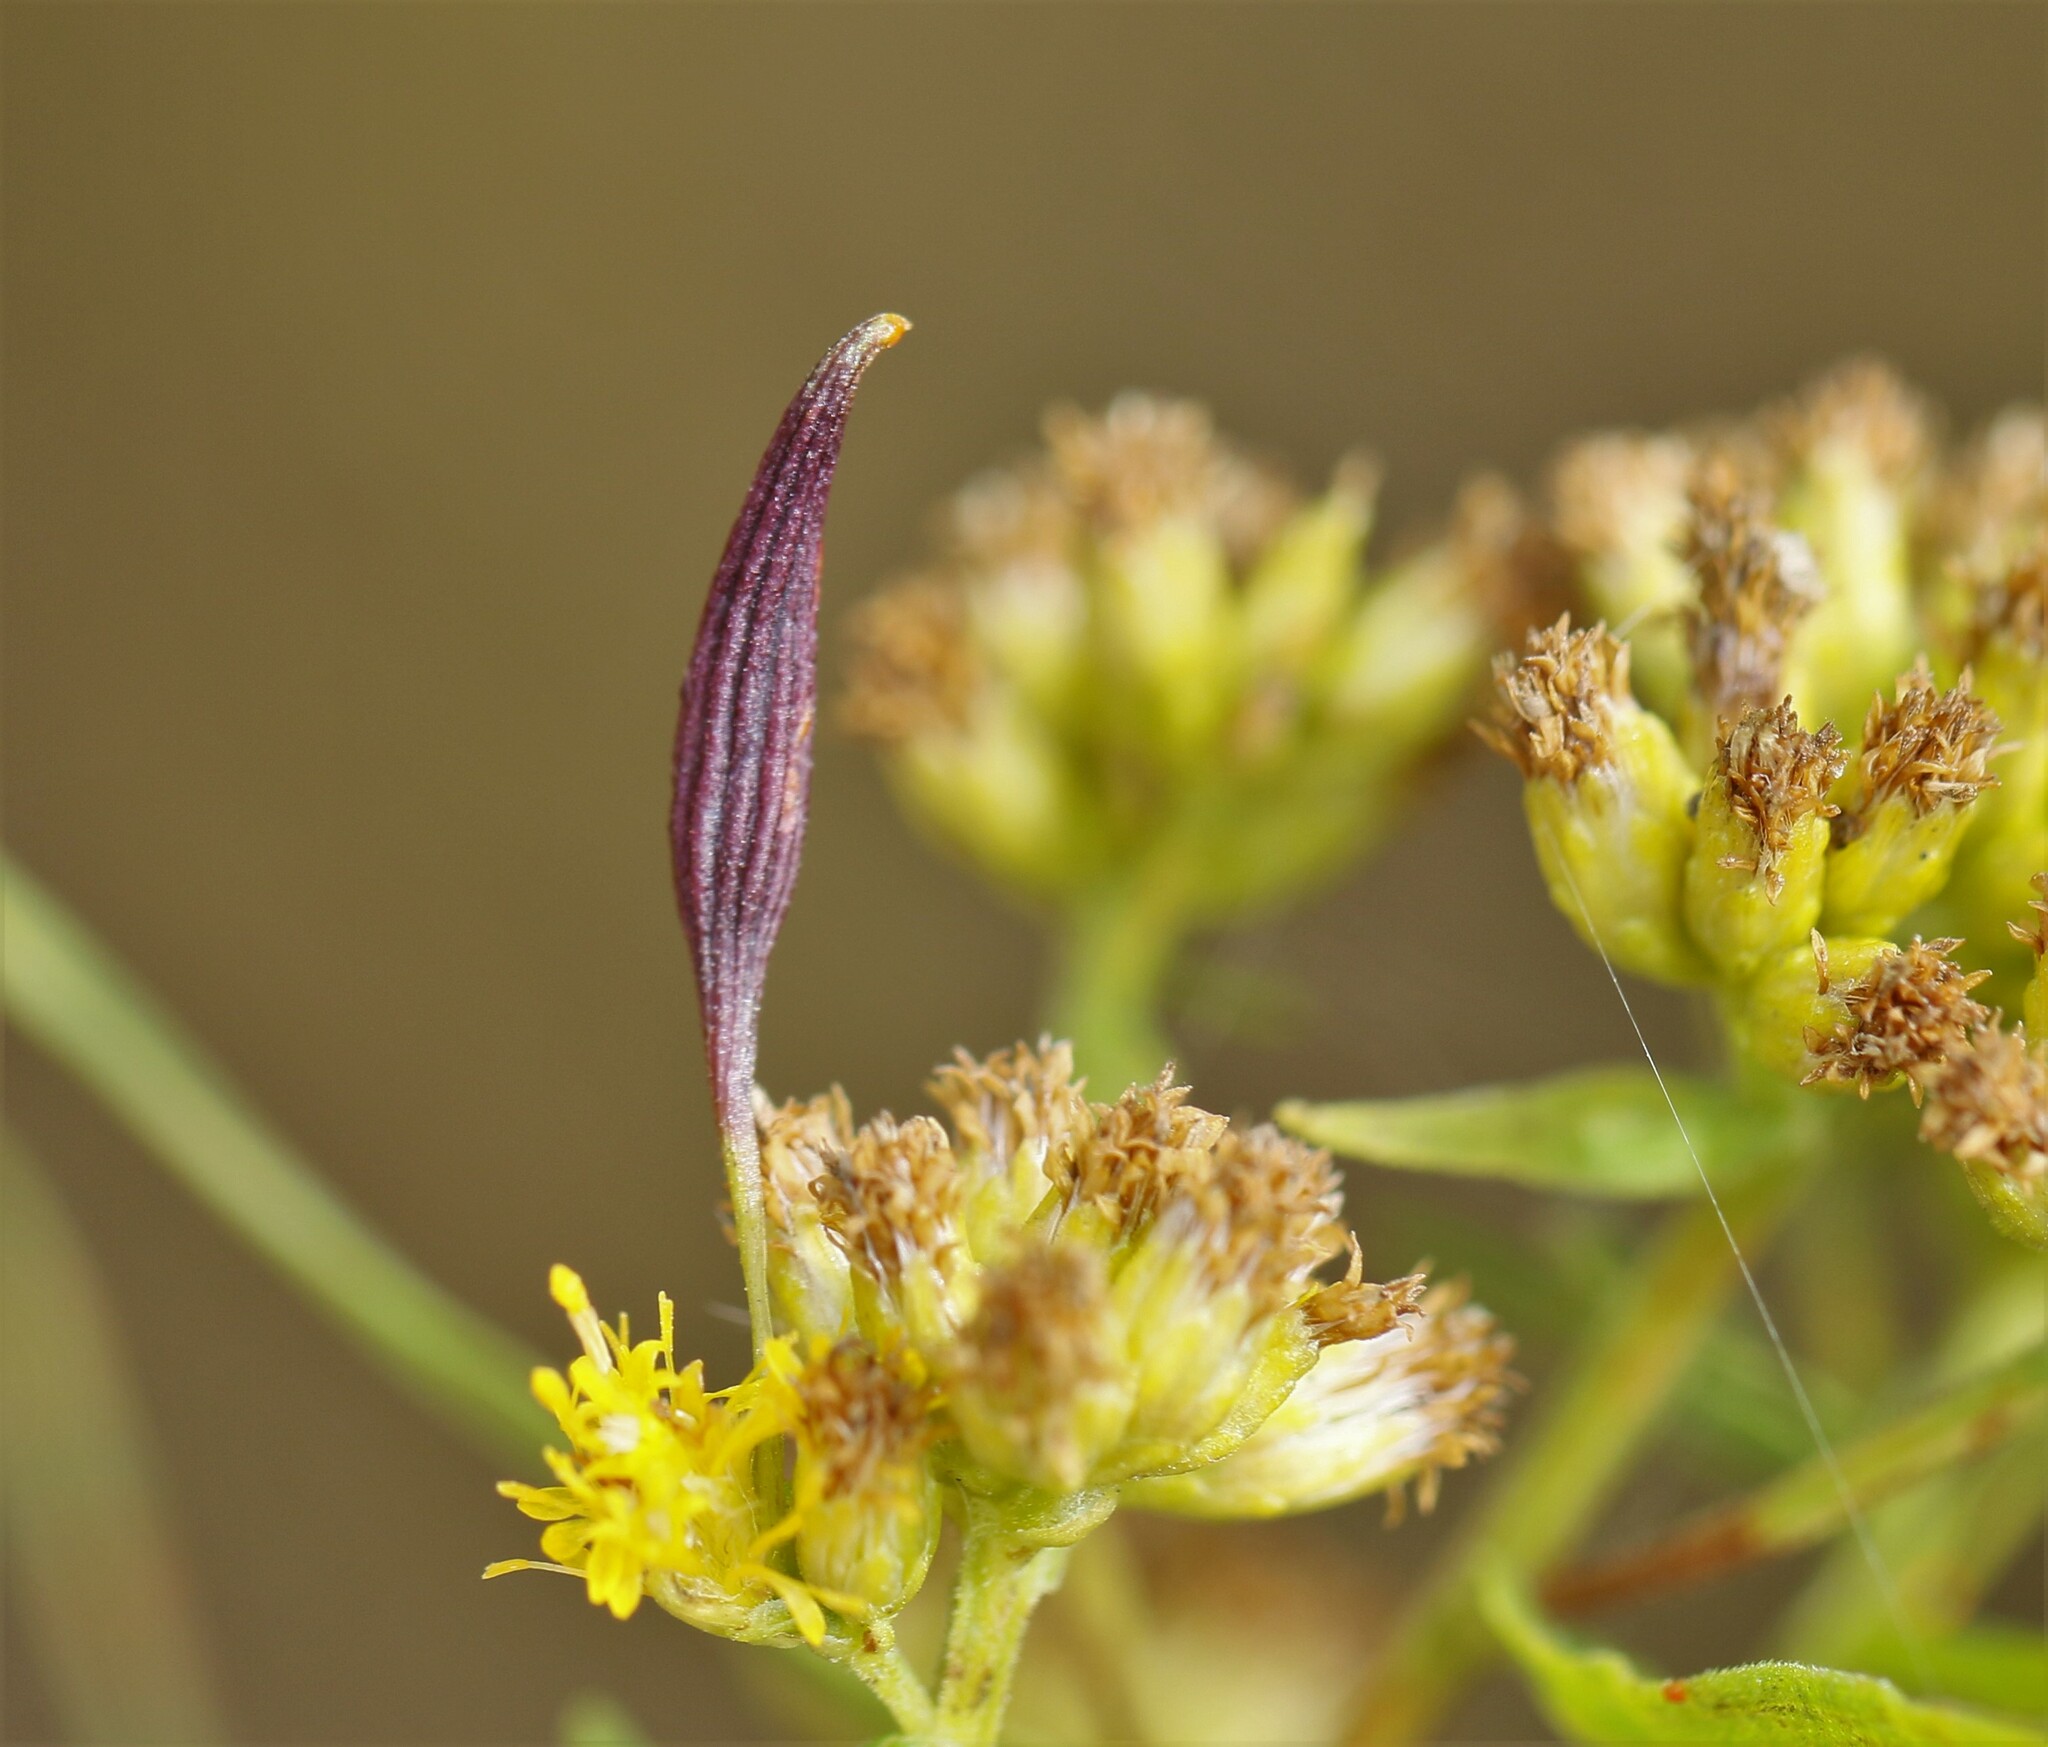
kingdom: Animalia
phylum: Arthropoda
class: Insecta
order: Diptera
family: Cecidomyiidae
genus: Rhopalomyia
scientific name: Rhopalomyia pedicellata
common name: Goldentop pedicellate gall midge
